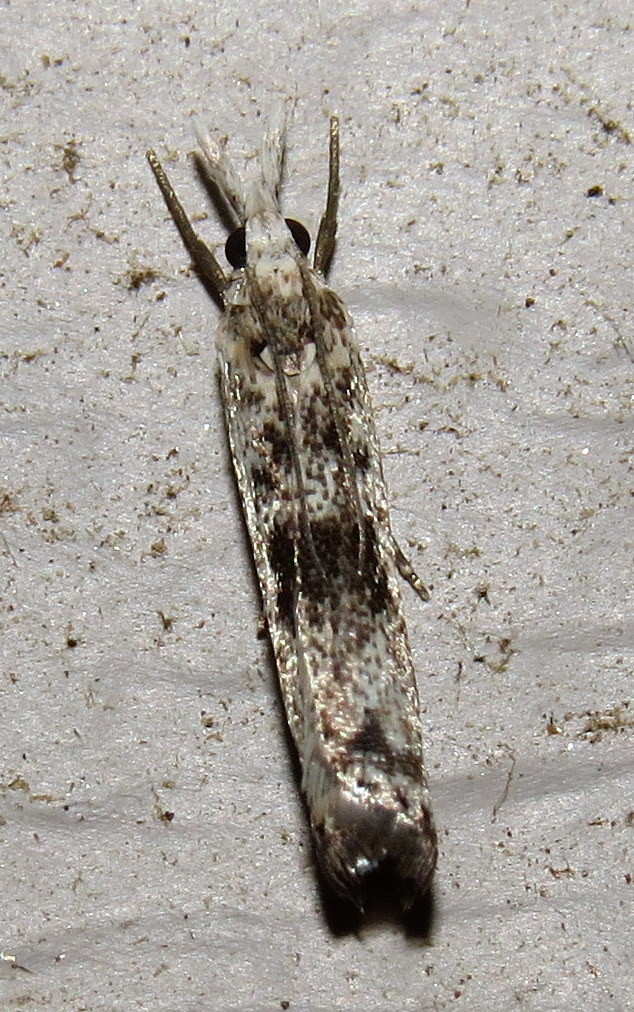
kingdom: Animalia
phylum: Arthropoda
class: Insecta
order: Lepidoptera
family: Crambidae
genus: Microcrambus
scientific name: Microcrambus immunellus
